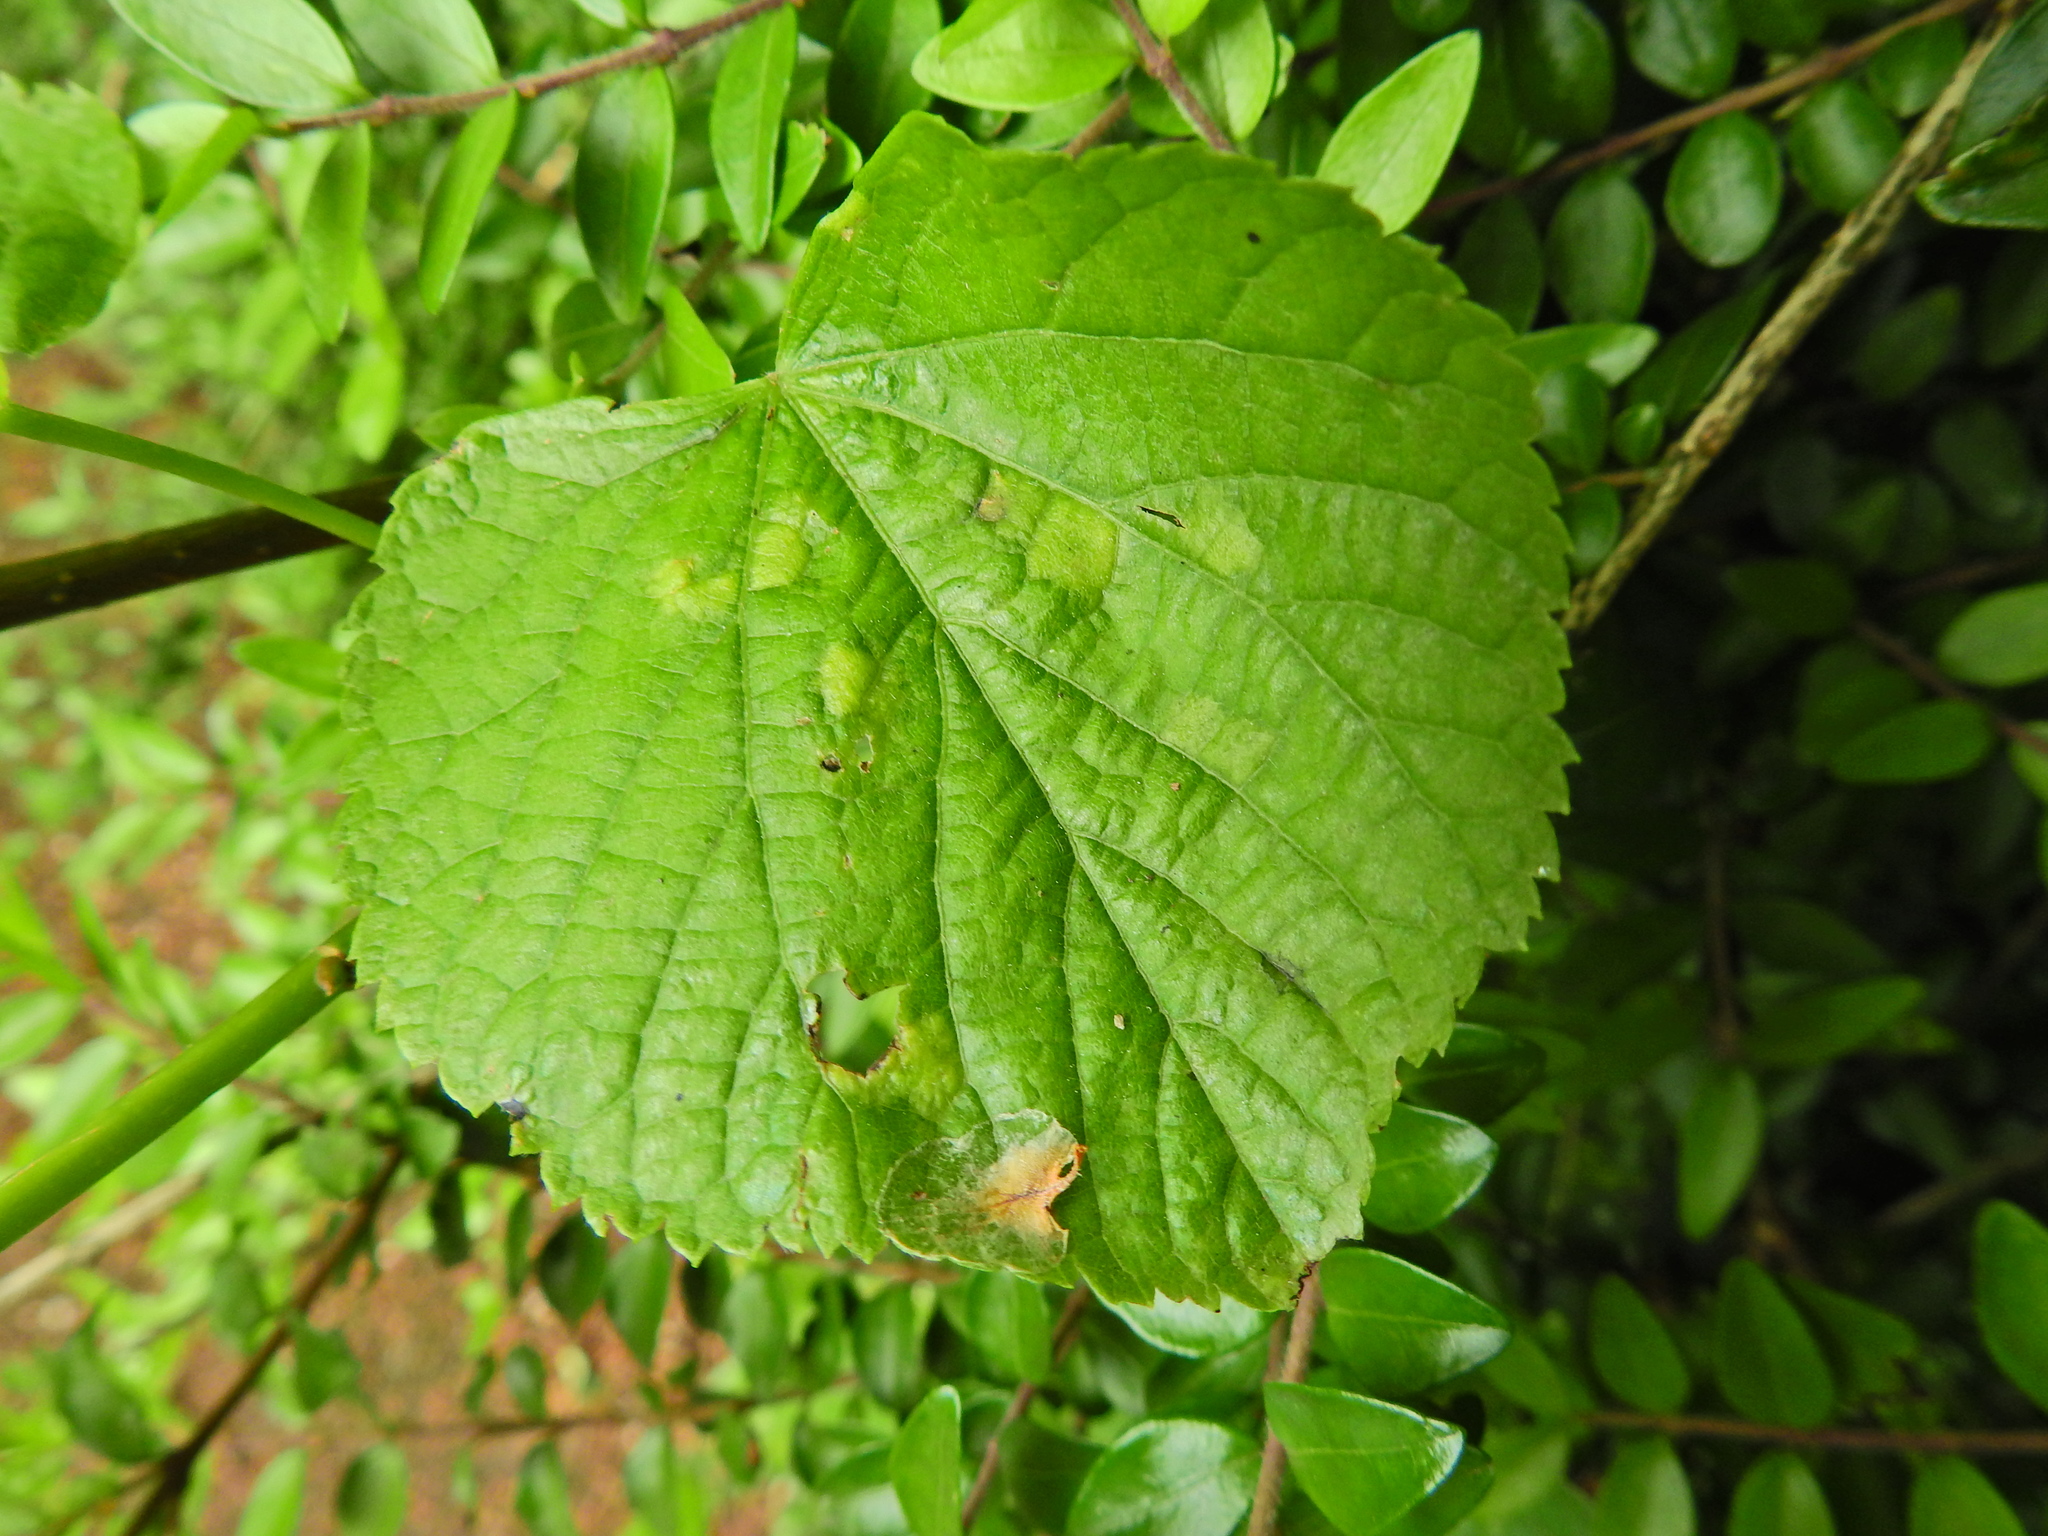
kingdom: Animalia
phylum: Arthropoda
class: Arachnida
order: Trombidiformes
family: Eriophyidae
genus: Eriophyes
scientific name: Eriophyes leiosoma
